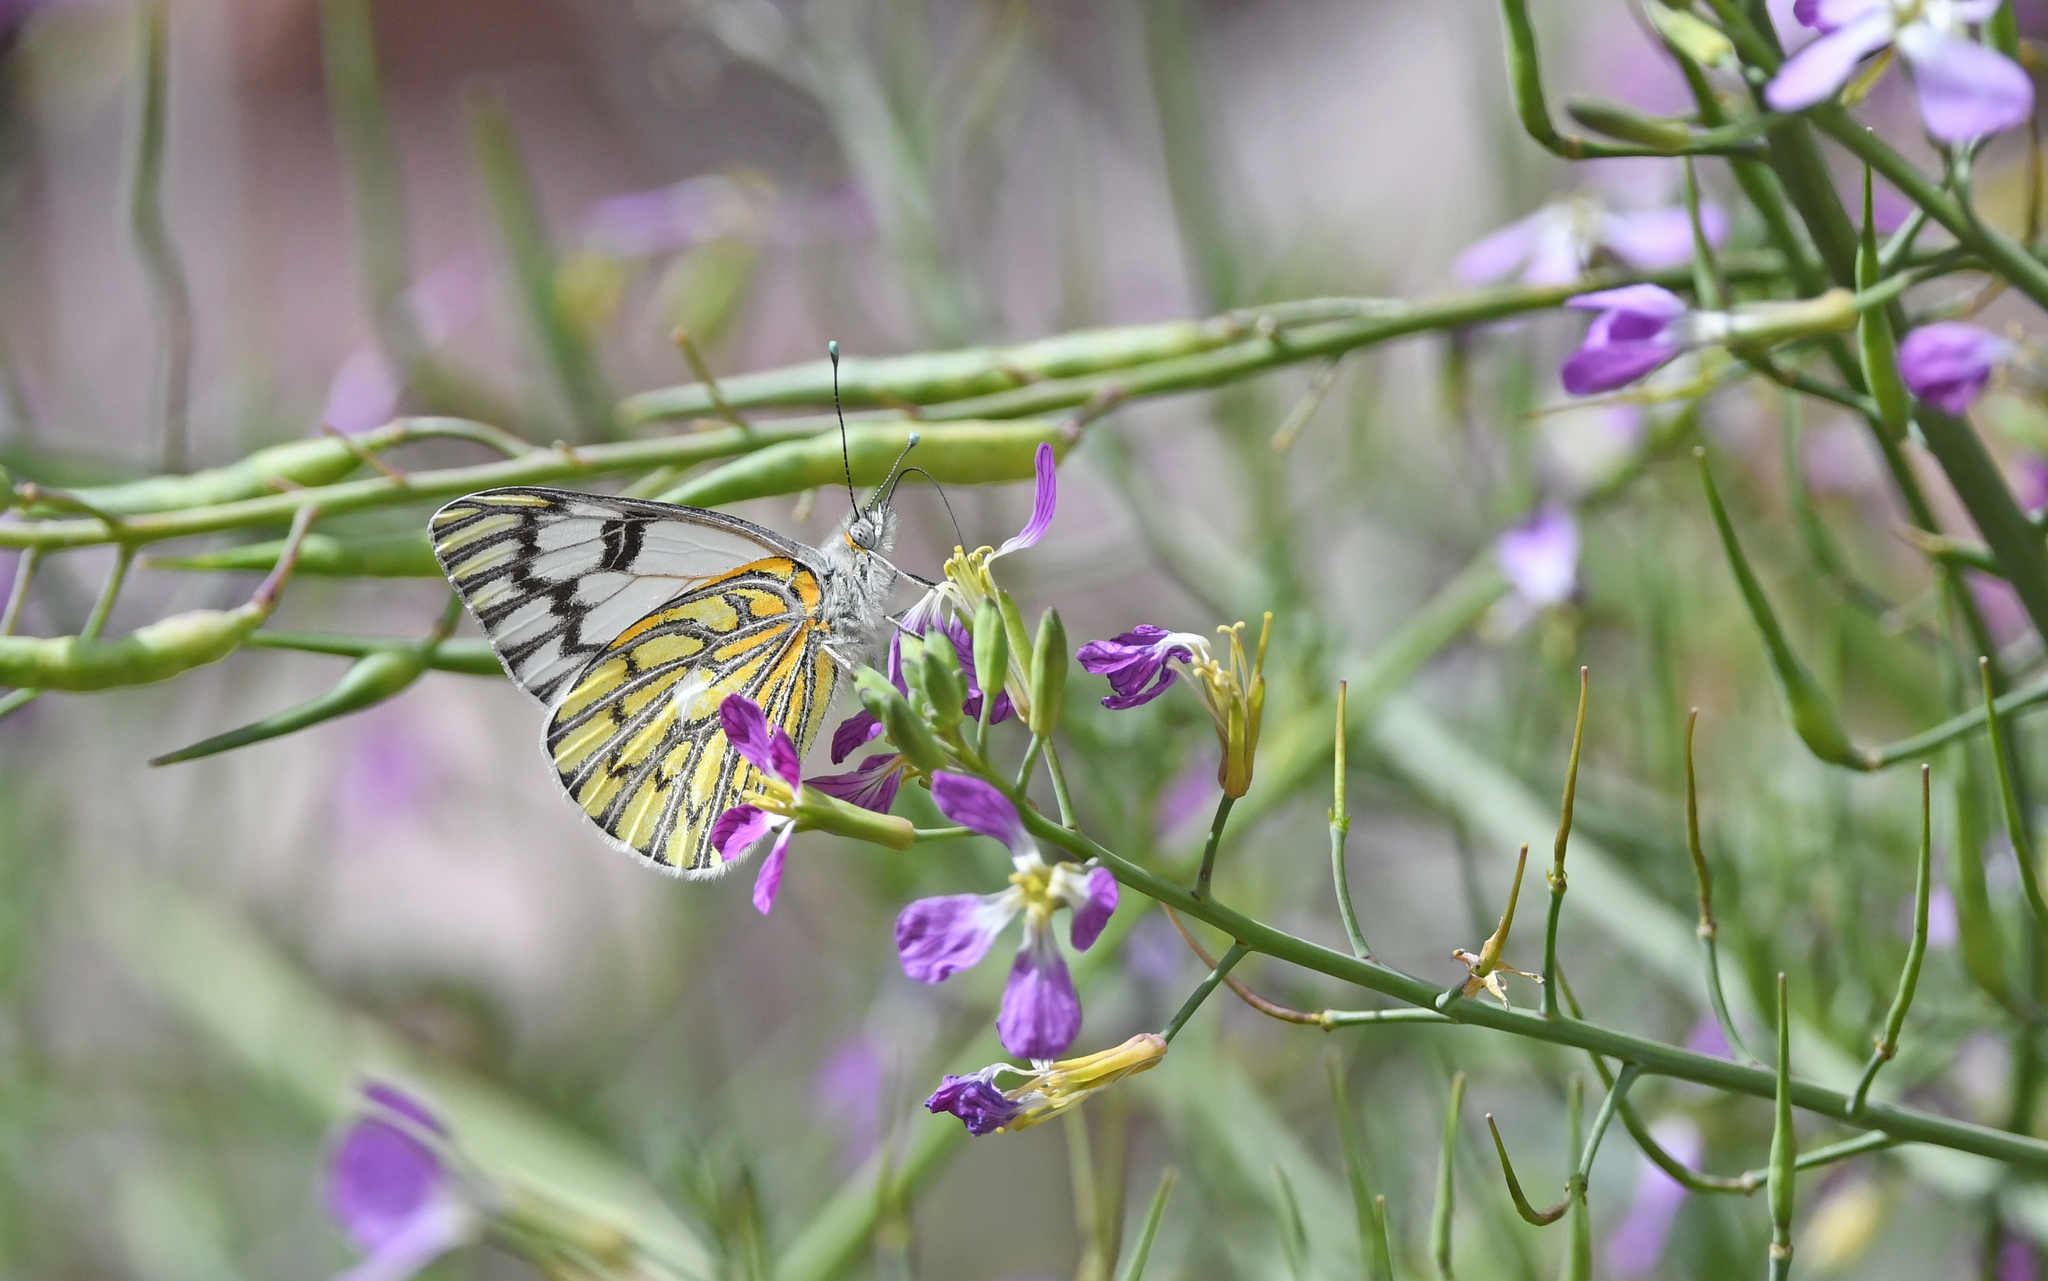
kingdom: Animalia
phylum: Arthropoda
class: Insecta
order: Lepidoptera
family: Pieridae
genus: Tatochila
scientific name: Tatochila autodice
